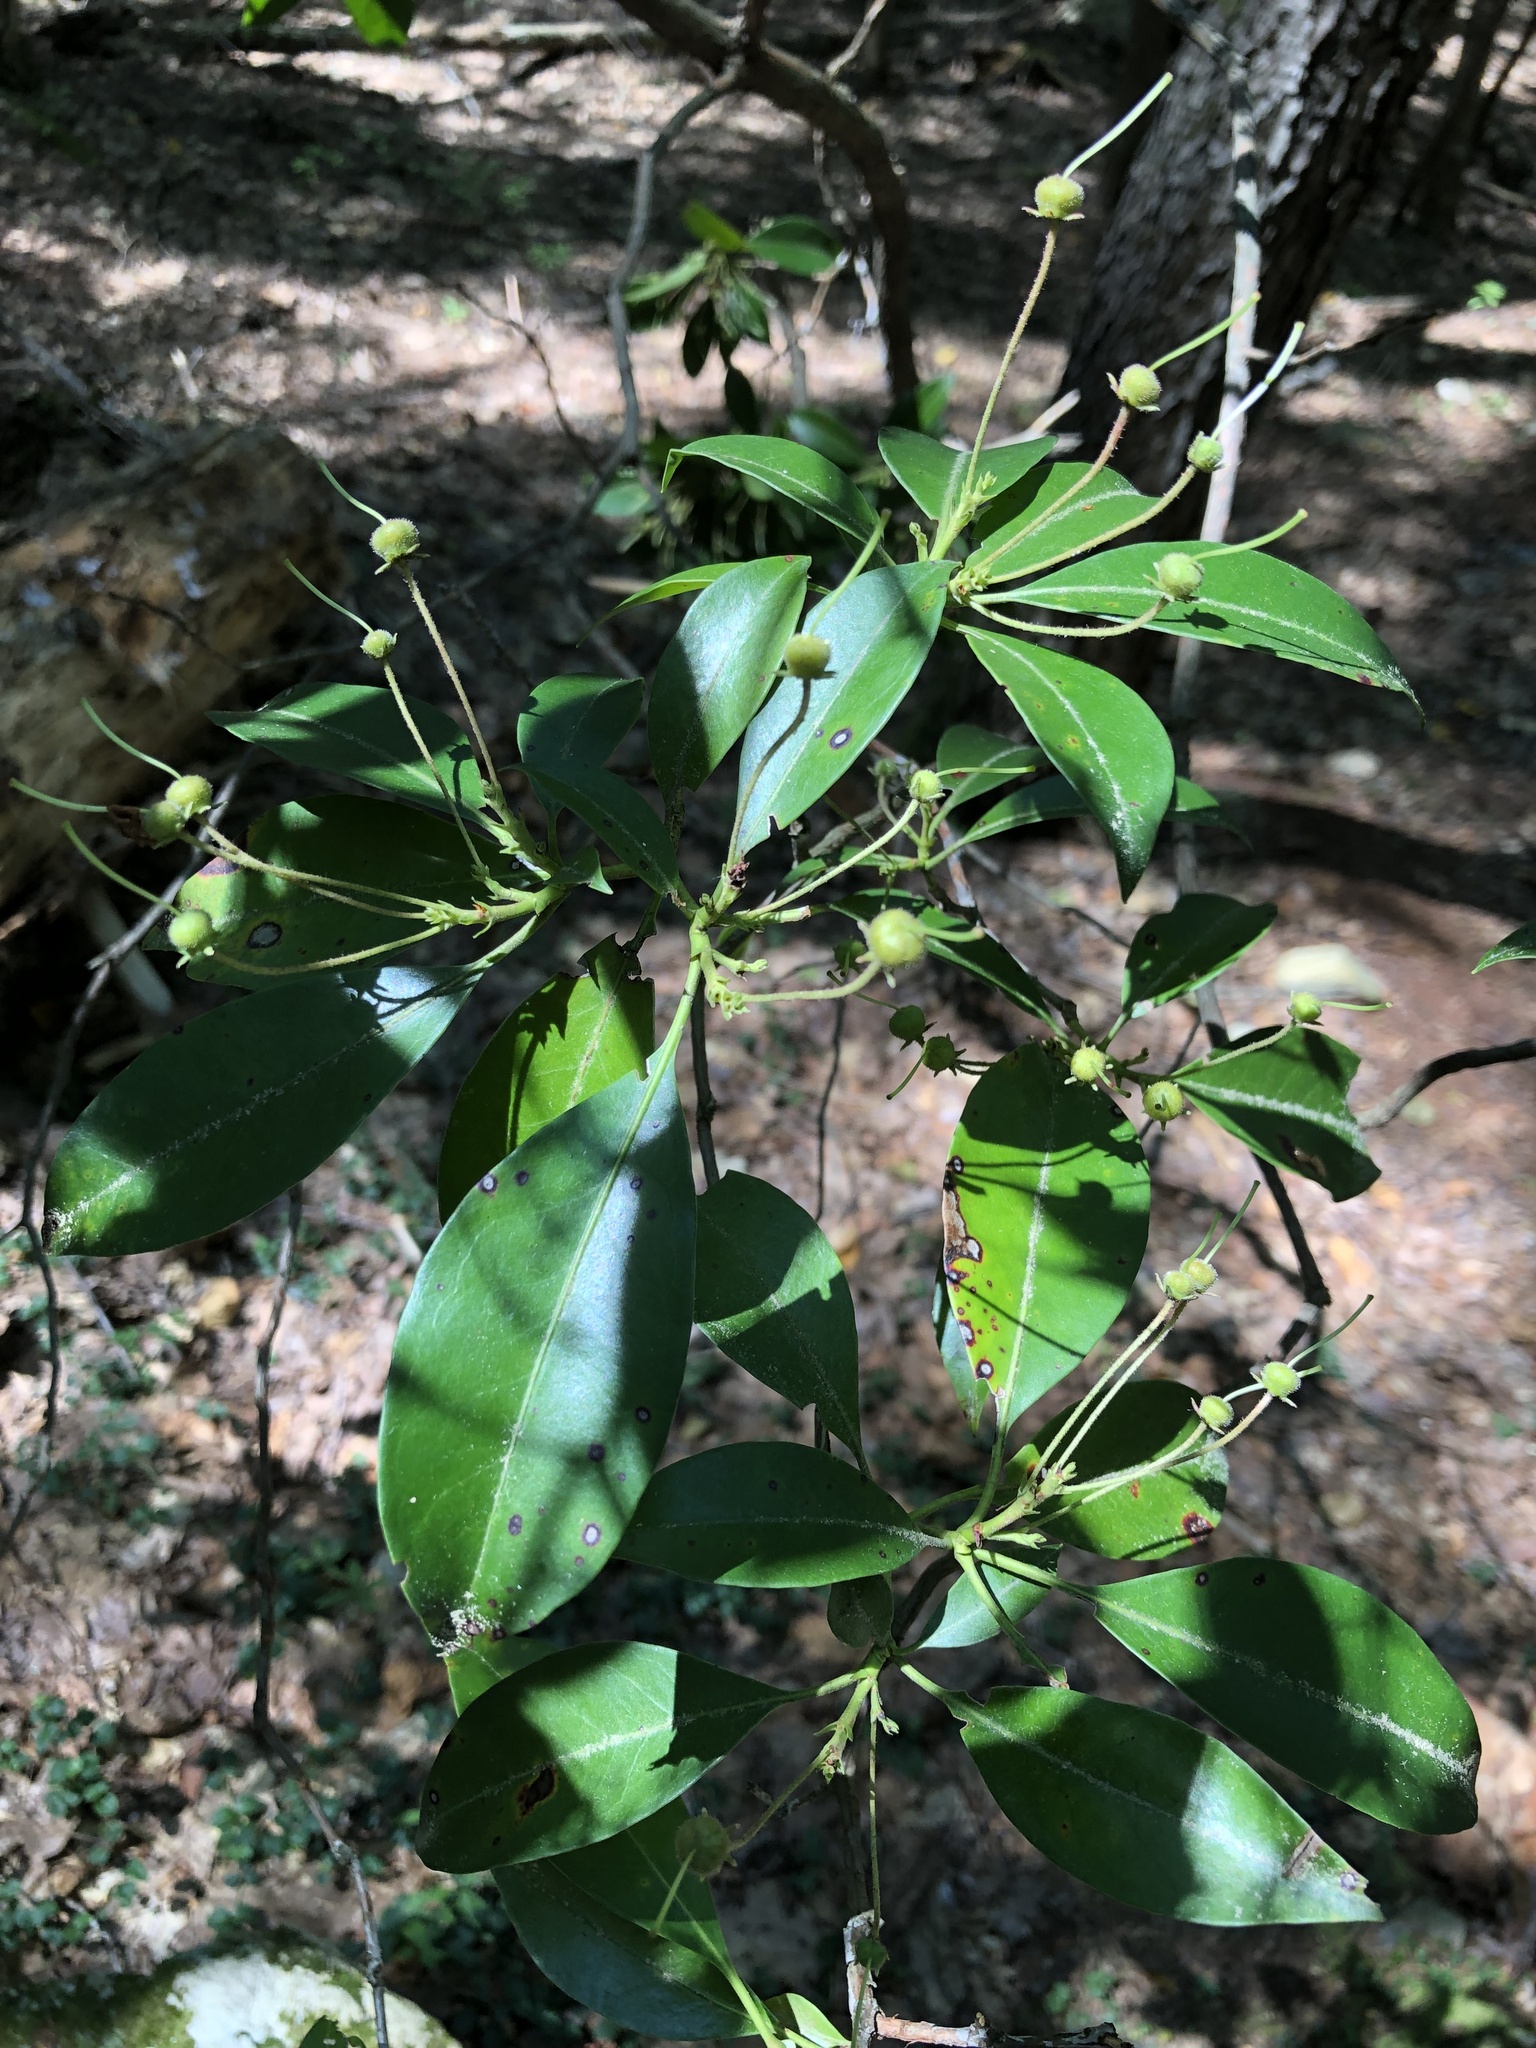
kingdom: Plantae
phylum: Tracheophyta
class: Magnoliopsida
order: Ericales
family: Ericaceae
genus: Kalmia
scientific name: Kalmia latifolia
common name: Mountain-laurel
